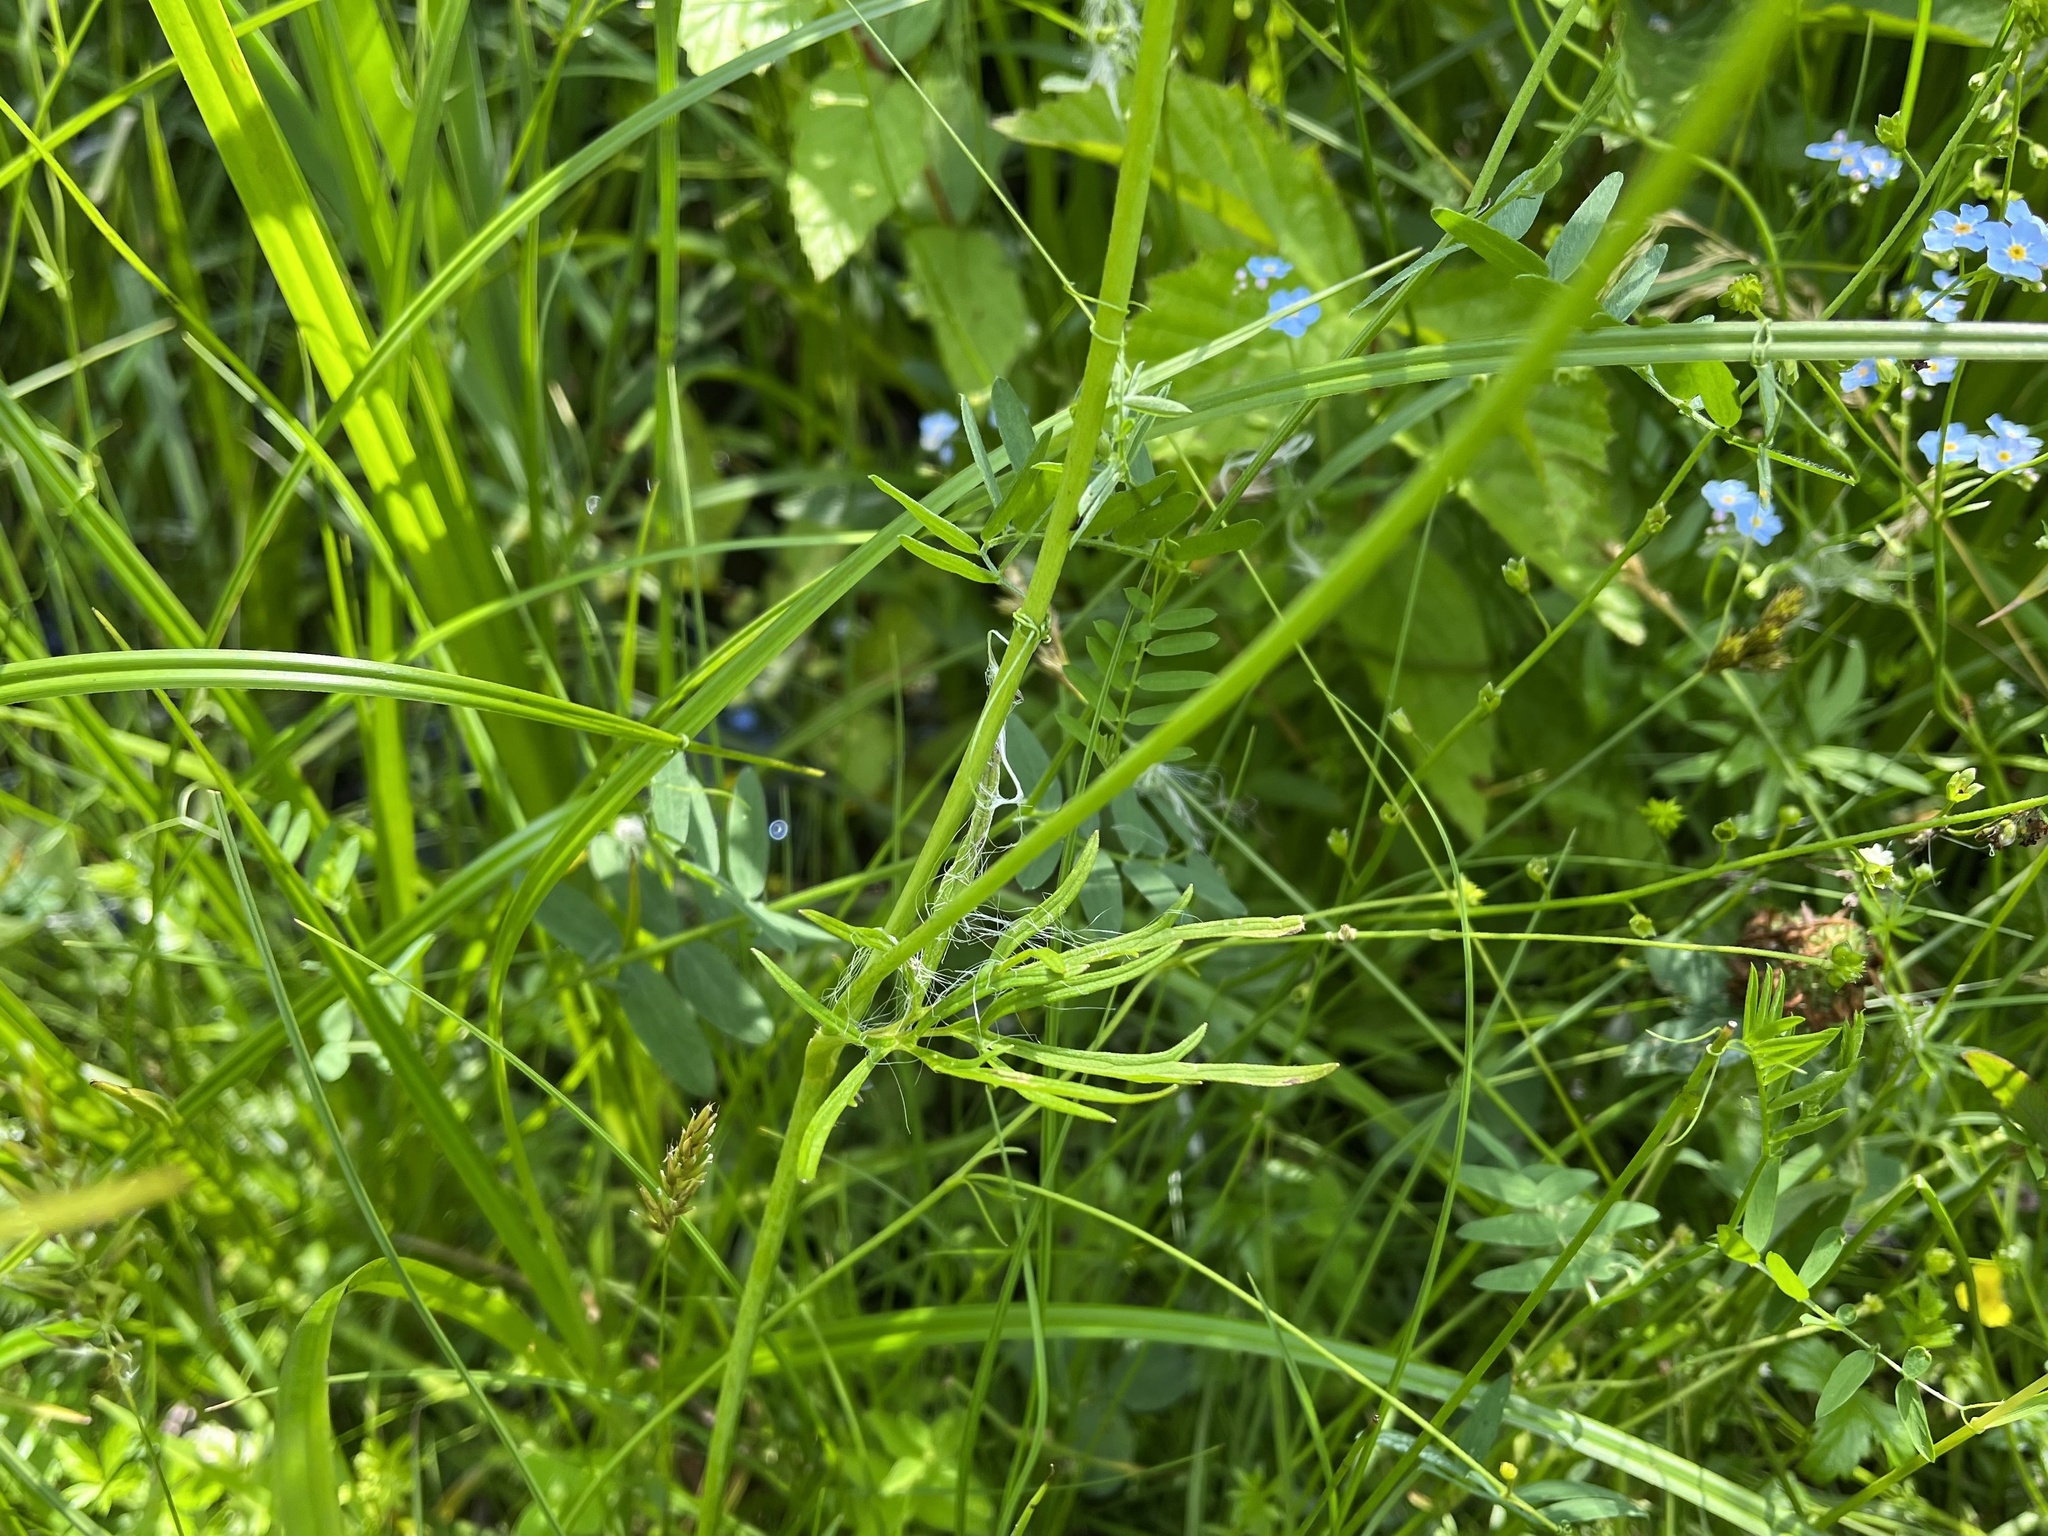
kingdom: Plantae
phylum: Tracheophyta
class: Magnoliopsida
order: Ranunculales
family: Ranunculaceae
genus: Ranunculus
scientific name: Ranunculus acris
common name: Meadow buttercup
